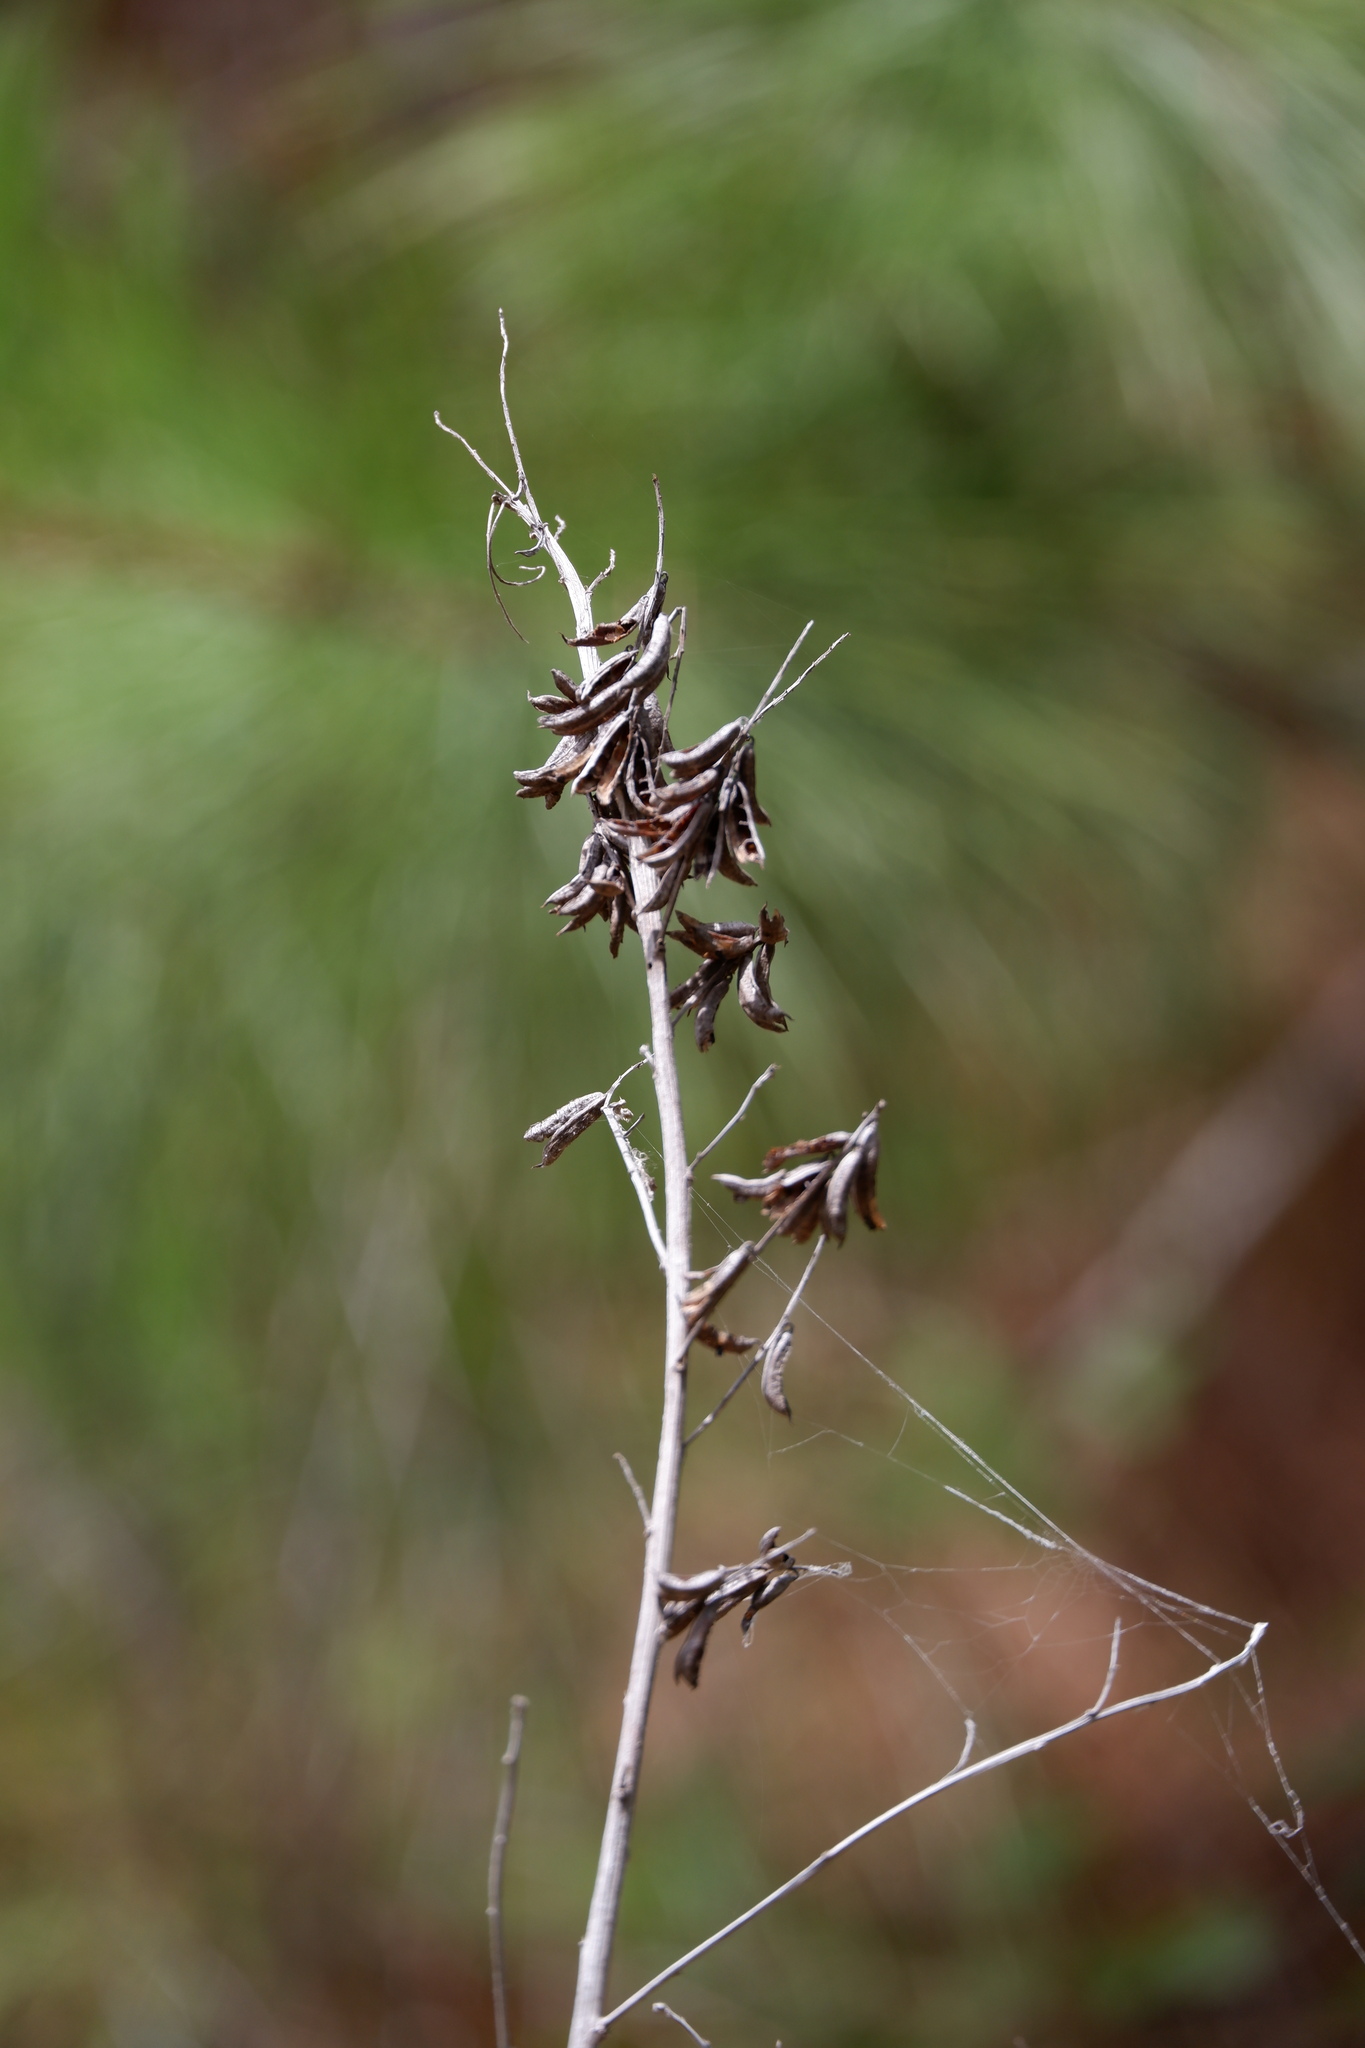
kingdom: Plantae
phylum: Tracheophyta
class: Magnoliopsida
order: Fabales
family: Fabaceae
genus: Indigofera
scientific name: Indigofera suffruticosa
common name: Anil de pasto
